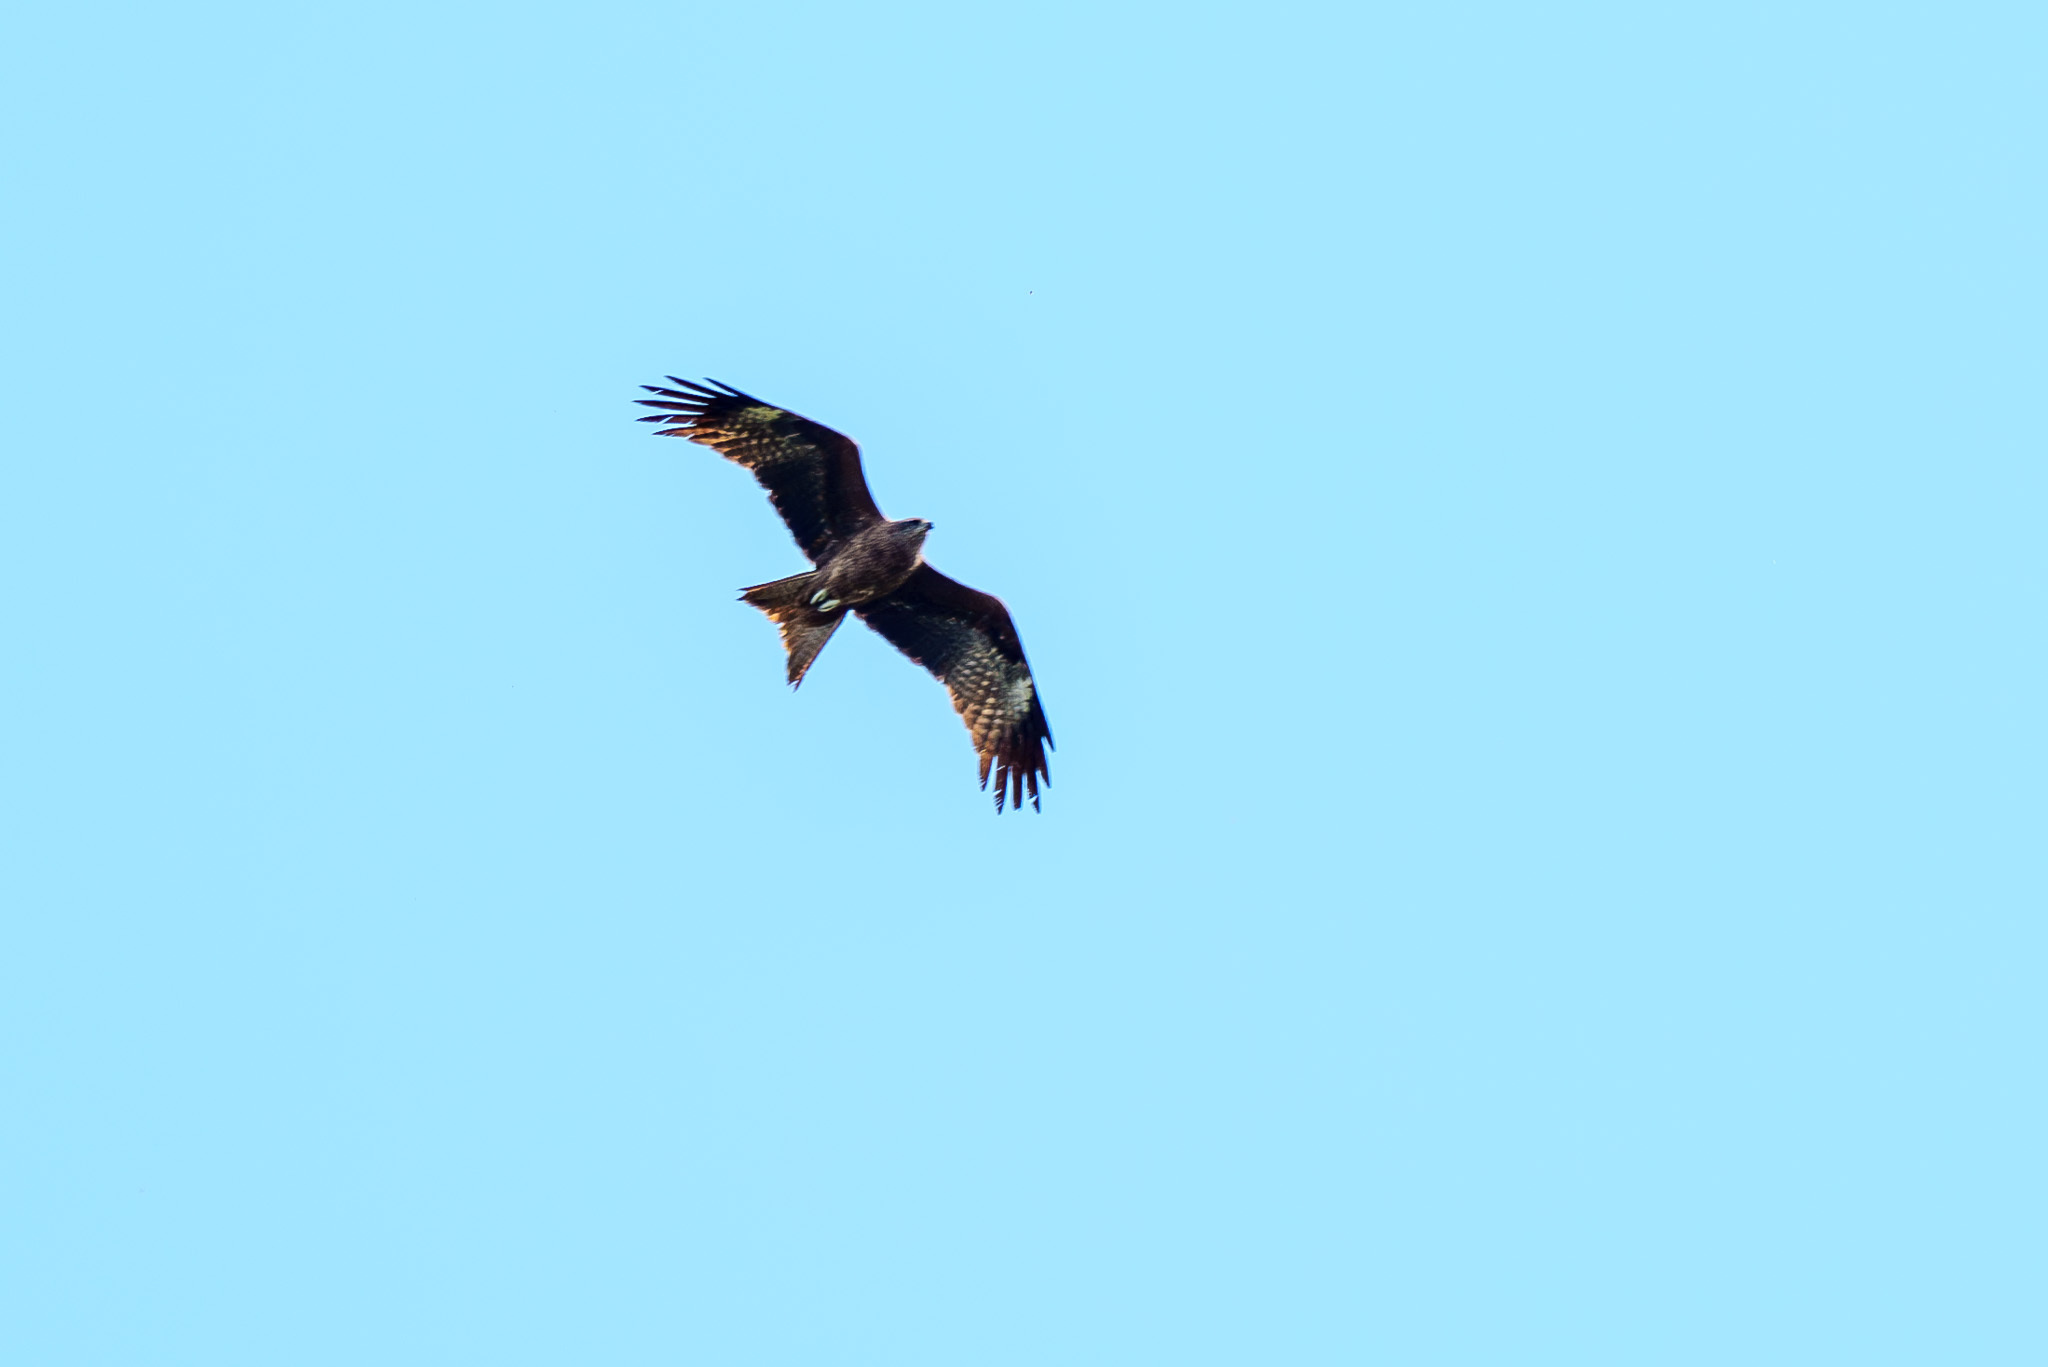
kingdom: Animalia
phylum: Chordata
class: Aves
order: Accipitriformes
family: Accipitridae
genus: Milvus
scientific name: Milvus migrans
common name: Black kite
